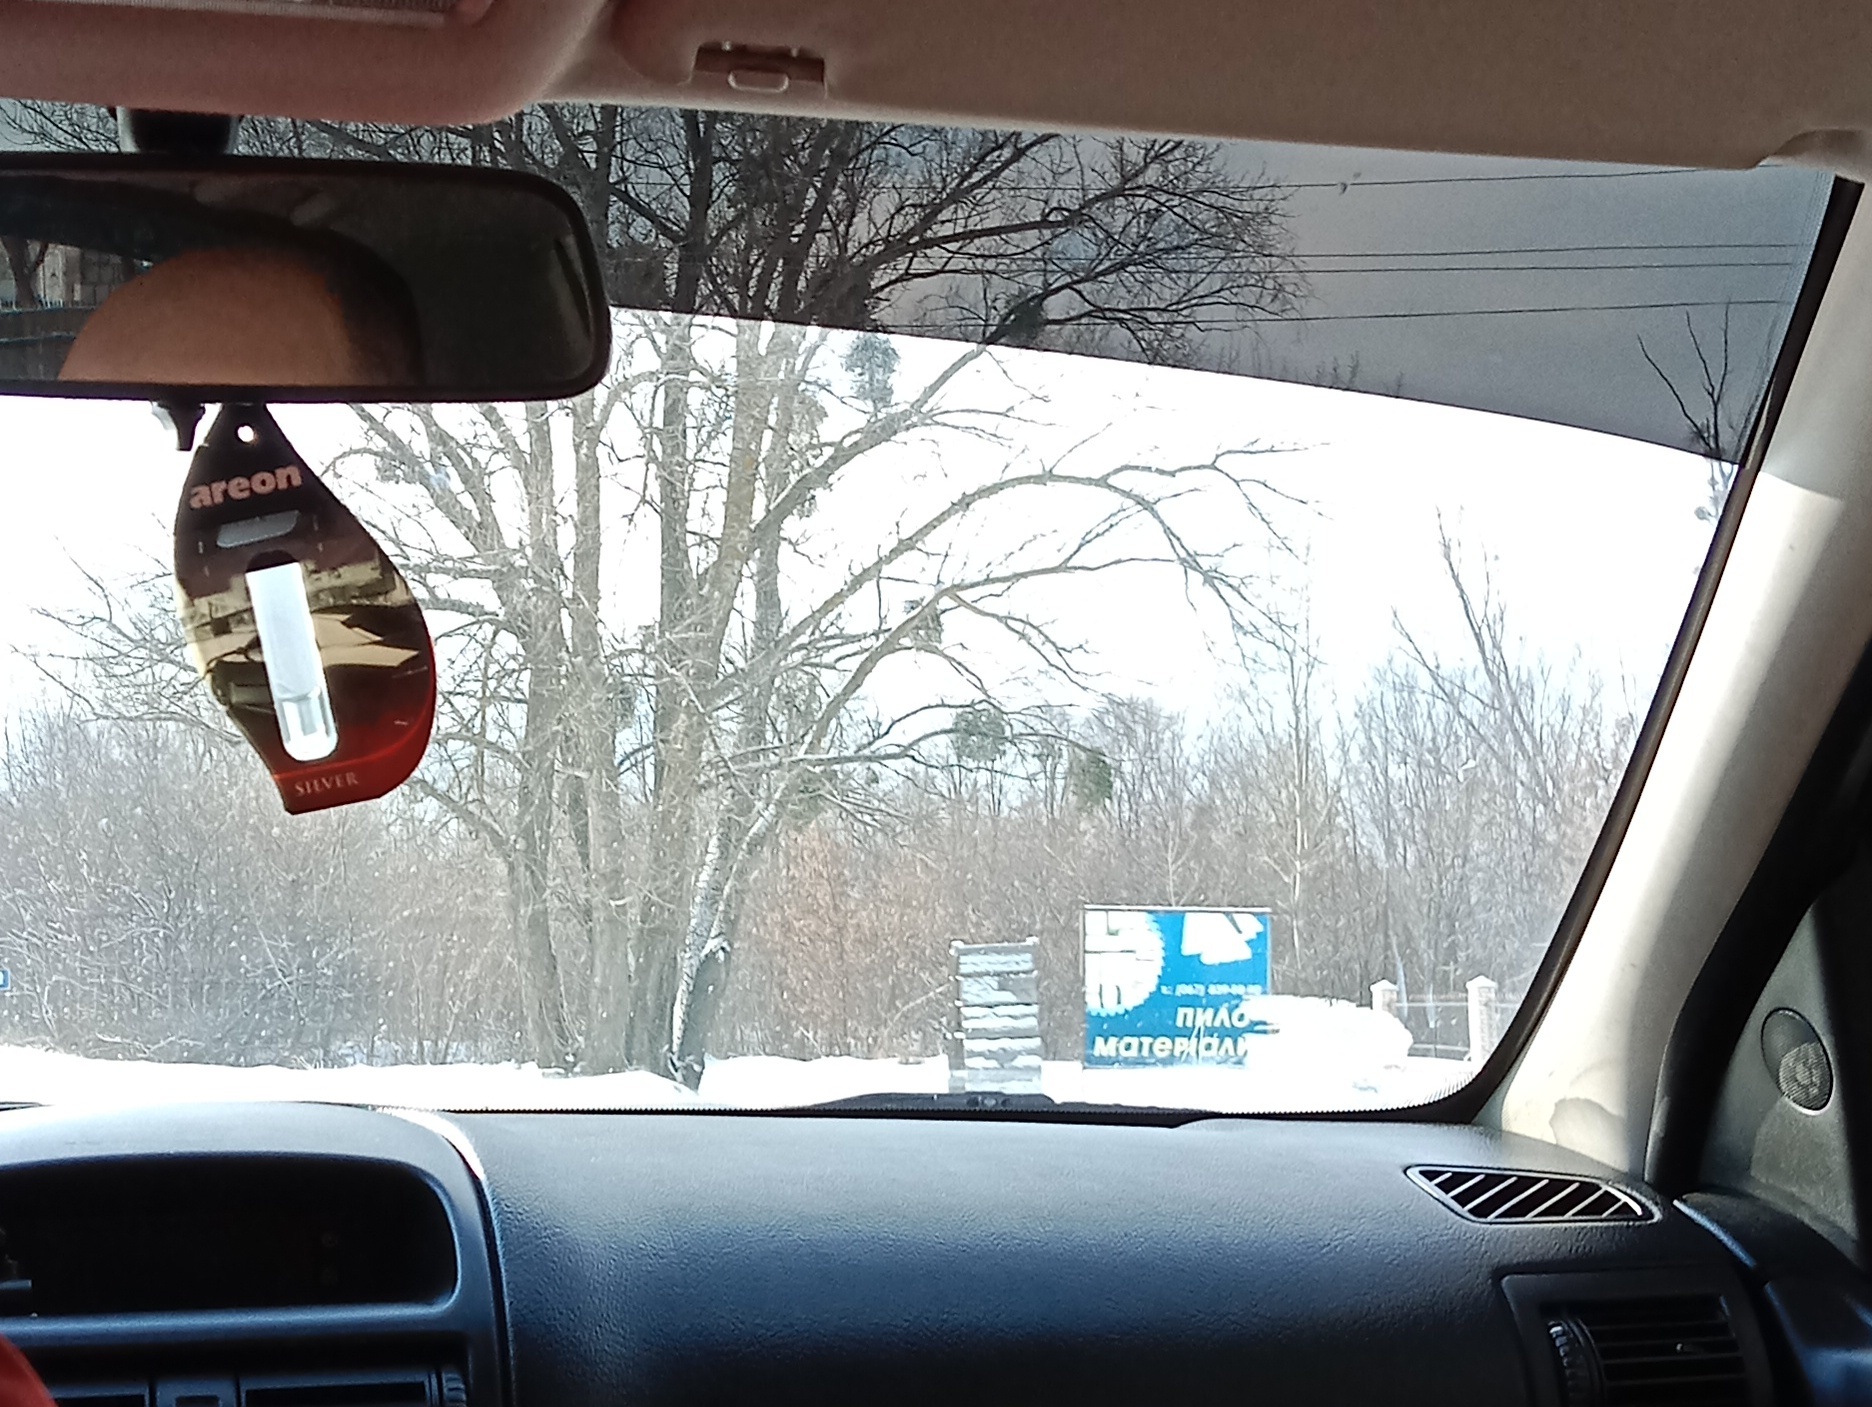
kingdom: Plantae
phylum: Tracheophyta
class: Magnoliopsida
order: Santalales
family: Viscaceae
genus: Viscum
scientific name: Viscum album
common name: Mistletoe
